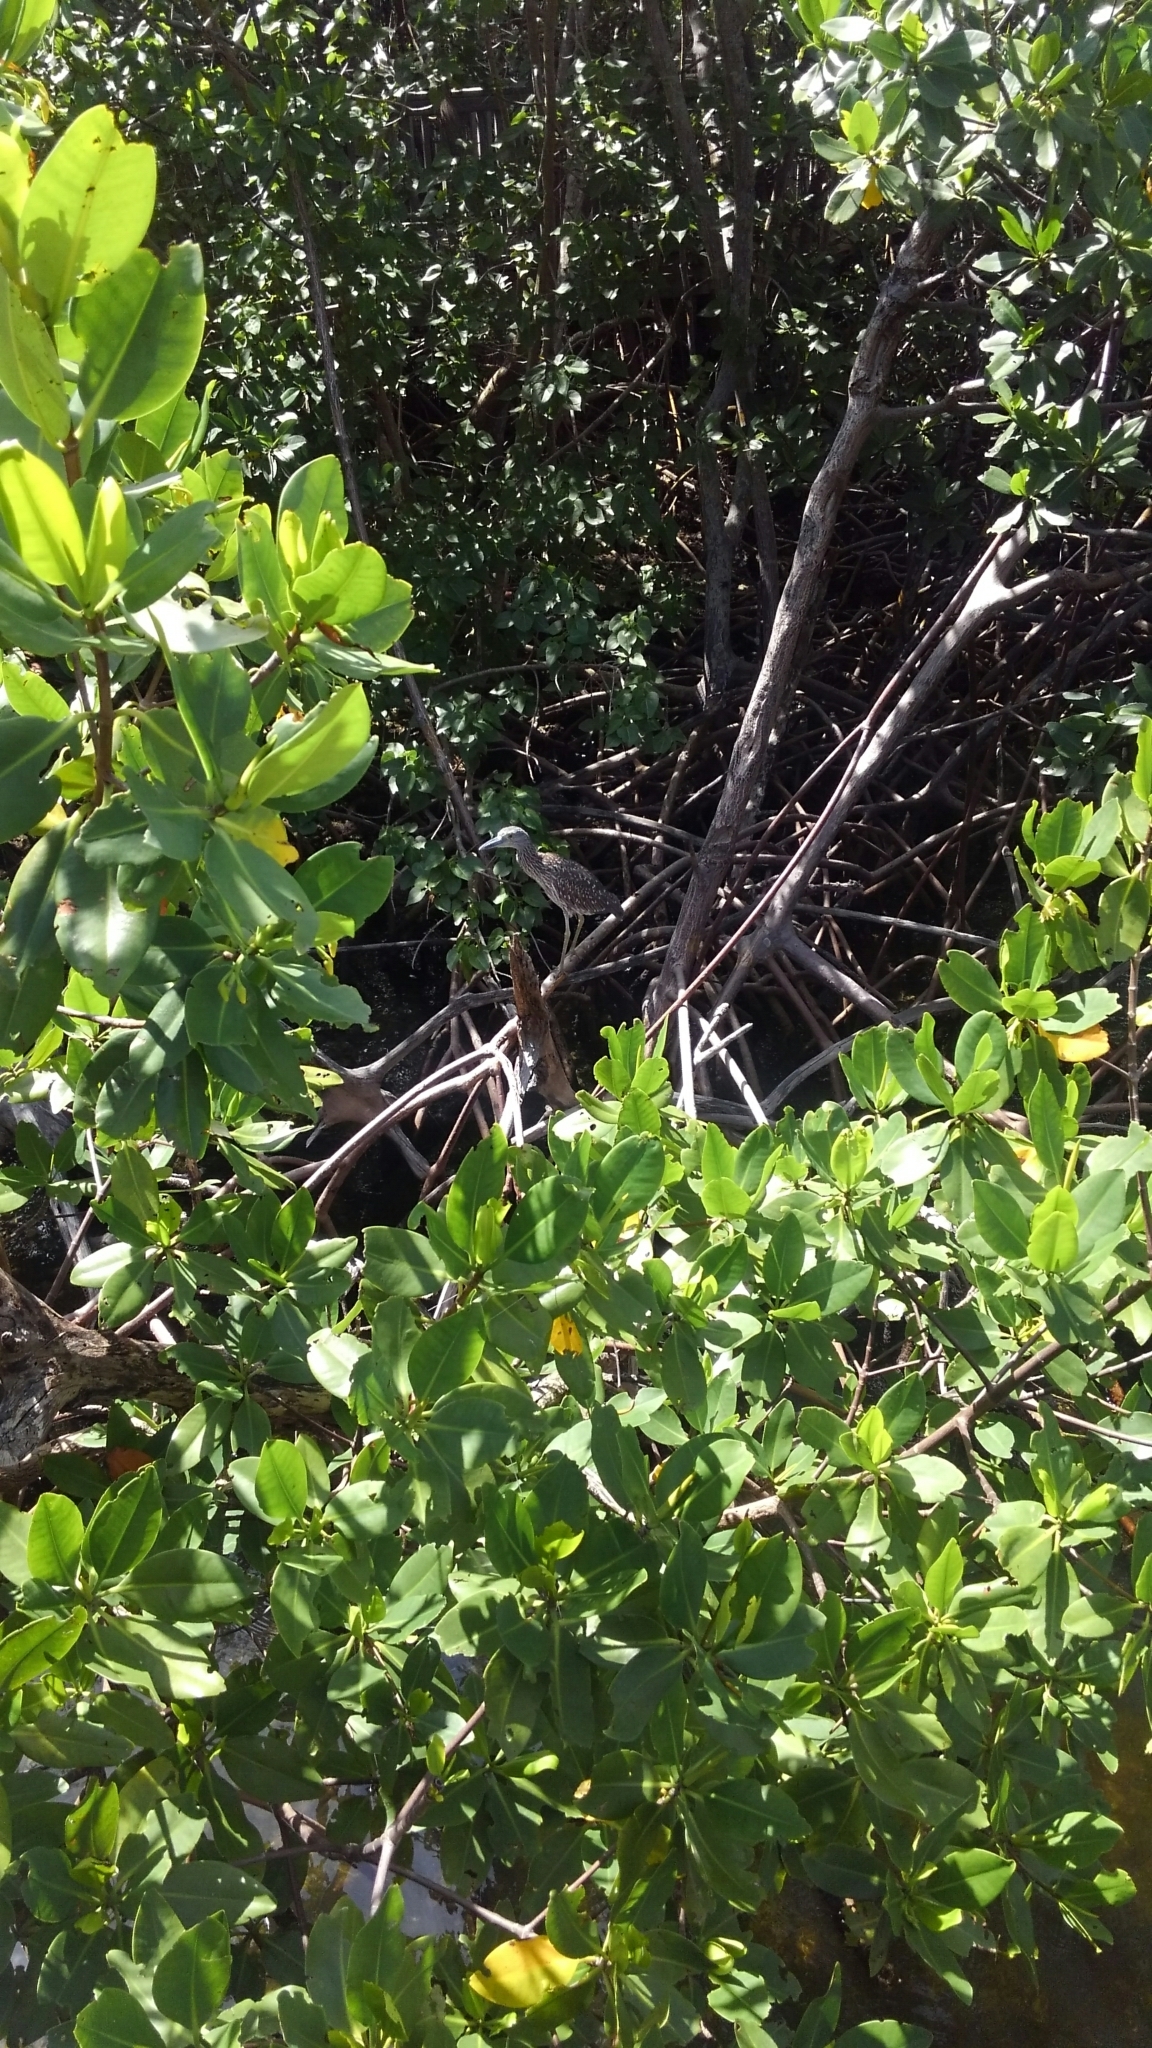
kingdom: Animalia
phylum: Chordata
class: Aves
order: Pelecaniformes
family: Ardeidae
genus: Nyctanassa
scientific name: Nyctanassa violacea
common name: Yellow-crowned night heron
